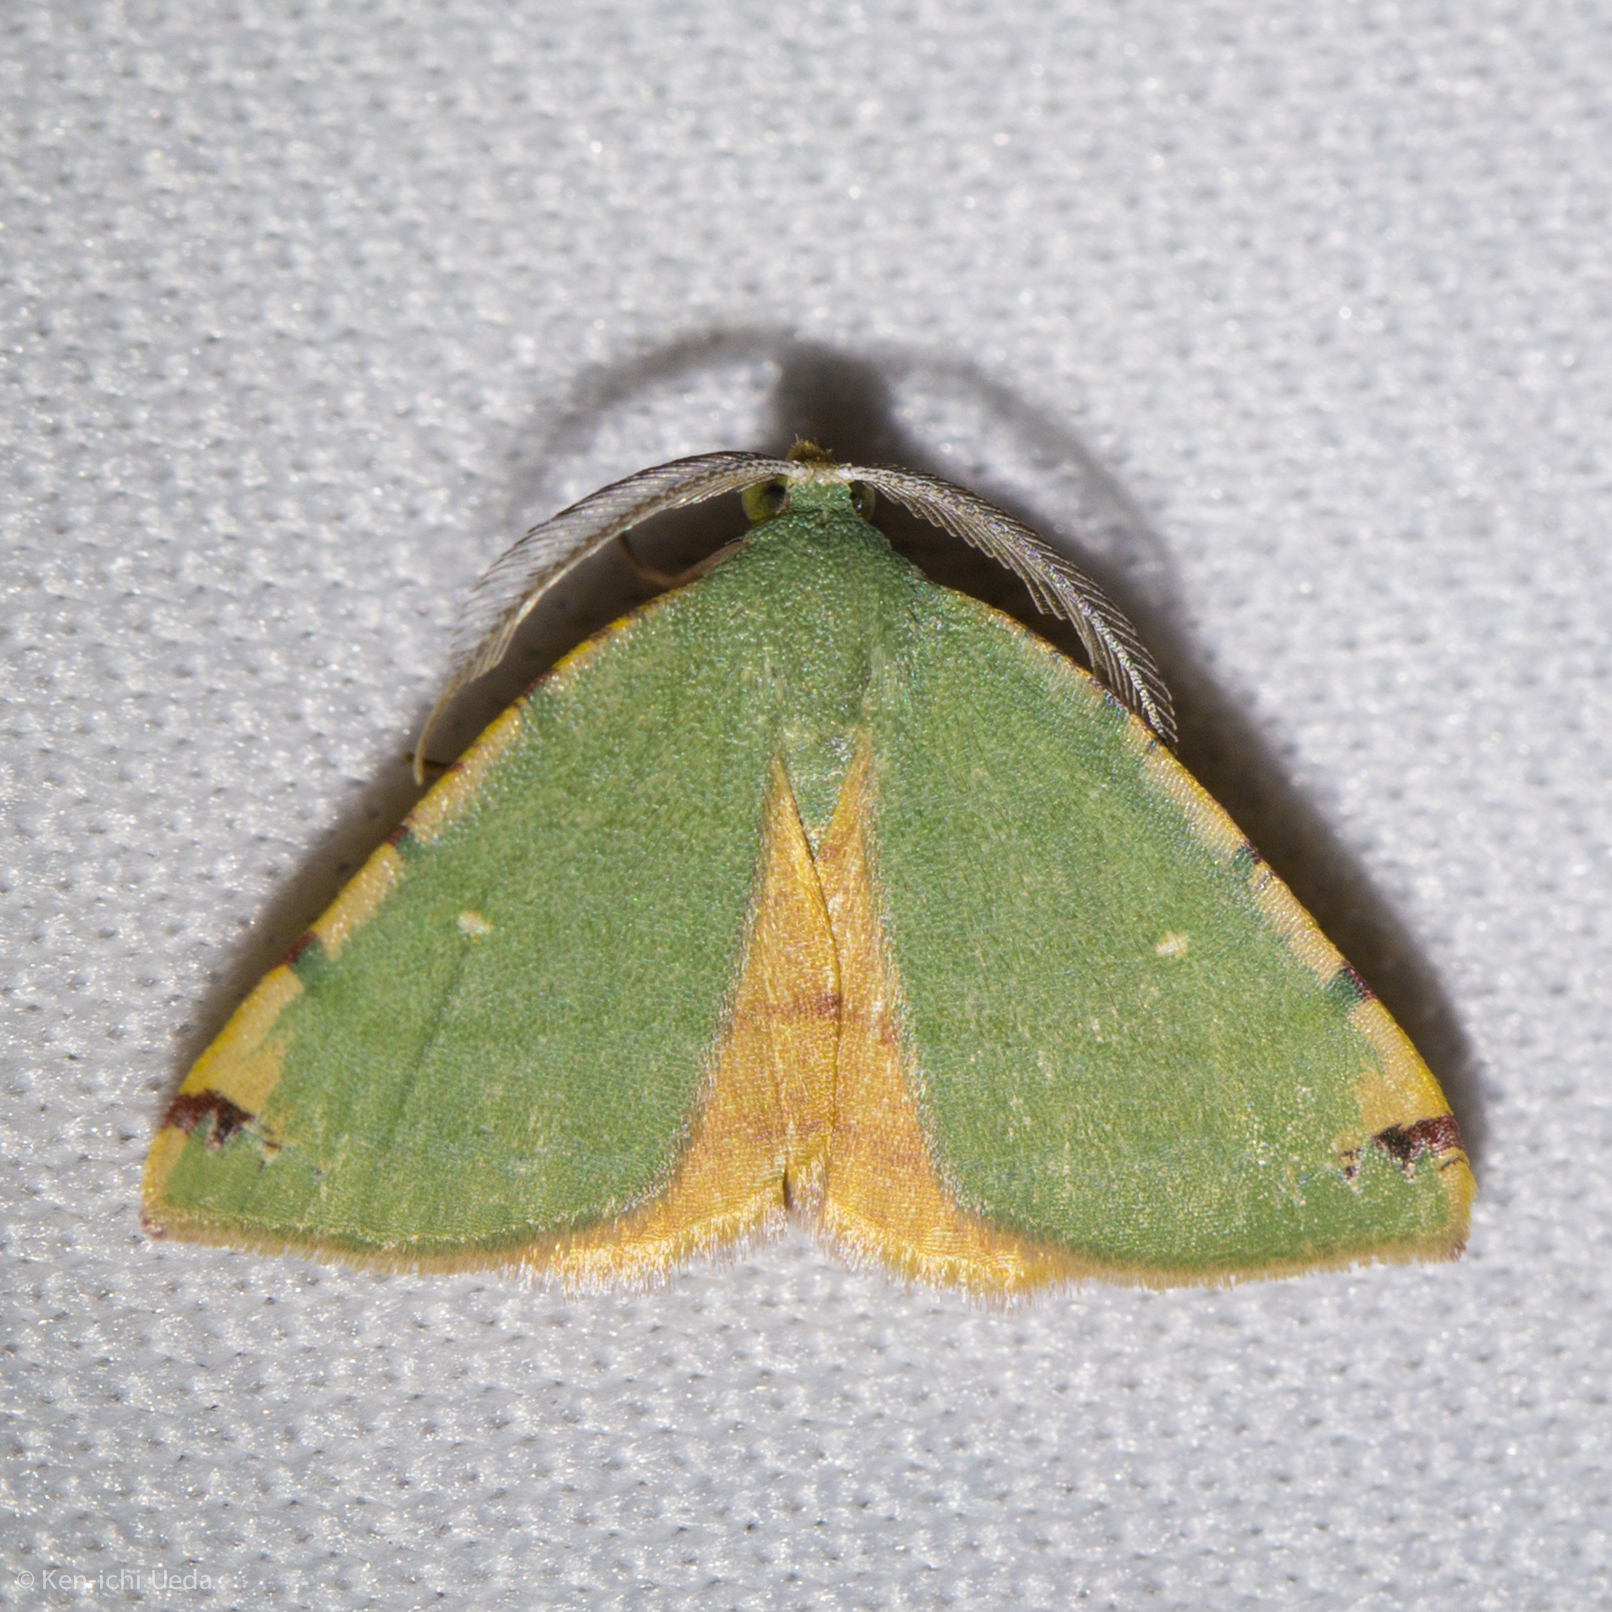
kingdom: Animalia
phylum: Arthropoda
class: Insecta
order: Lepidoptera
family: Geometridae
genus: Chloraspilates
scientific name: Chloraspilates bicoloraria
